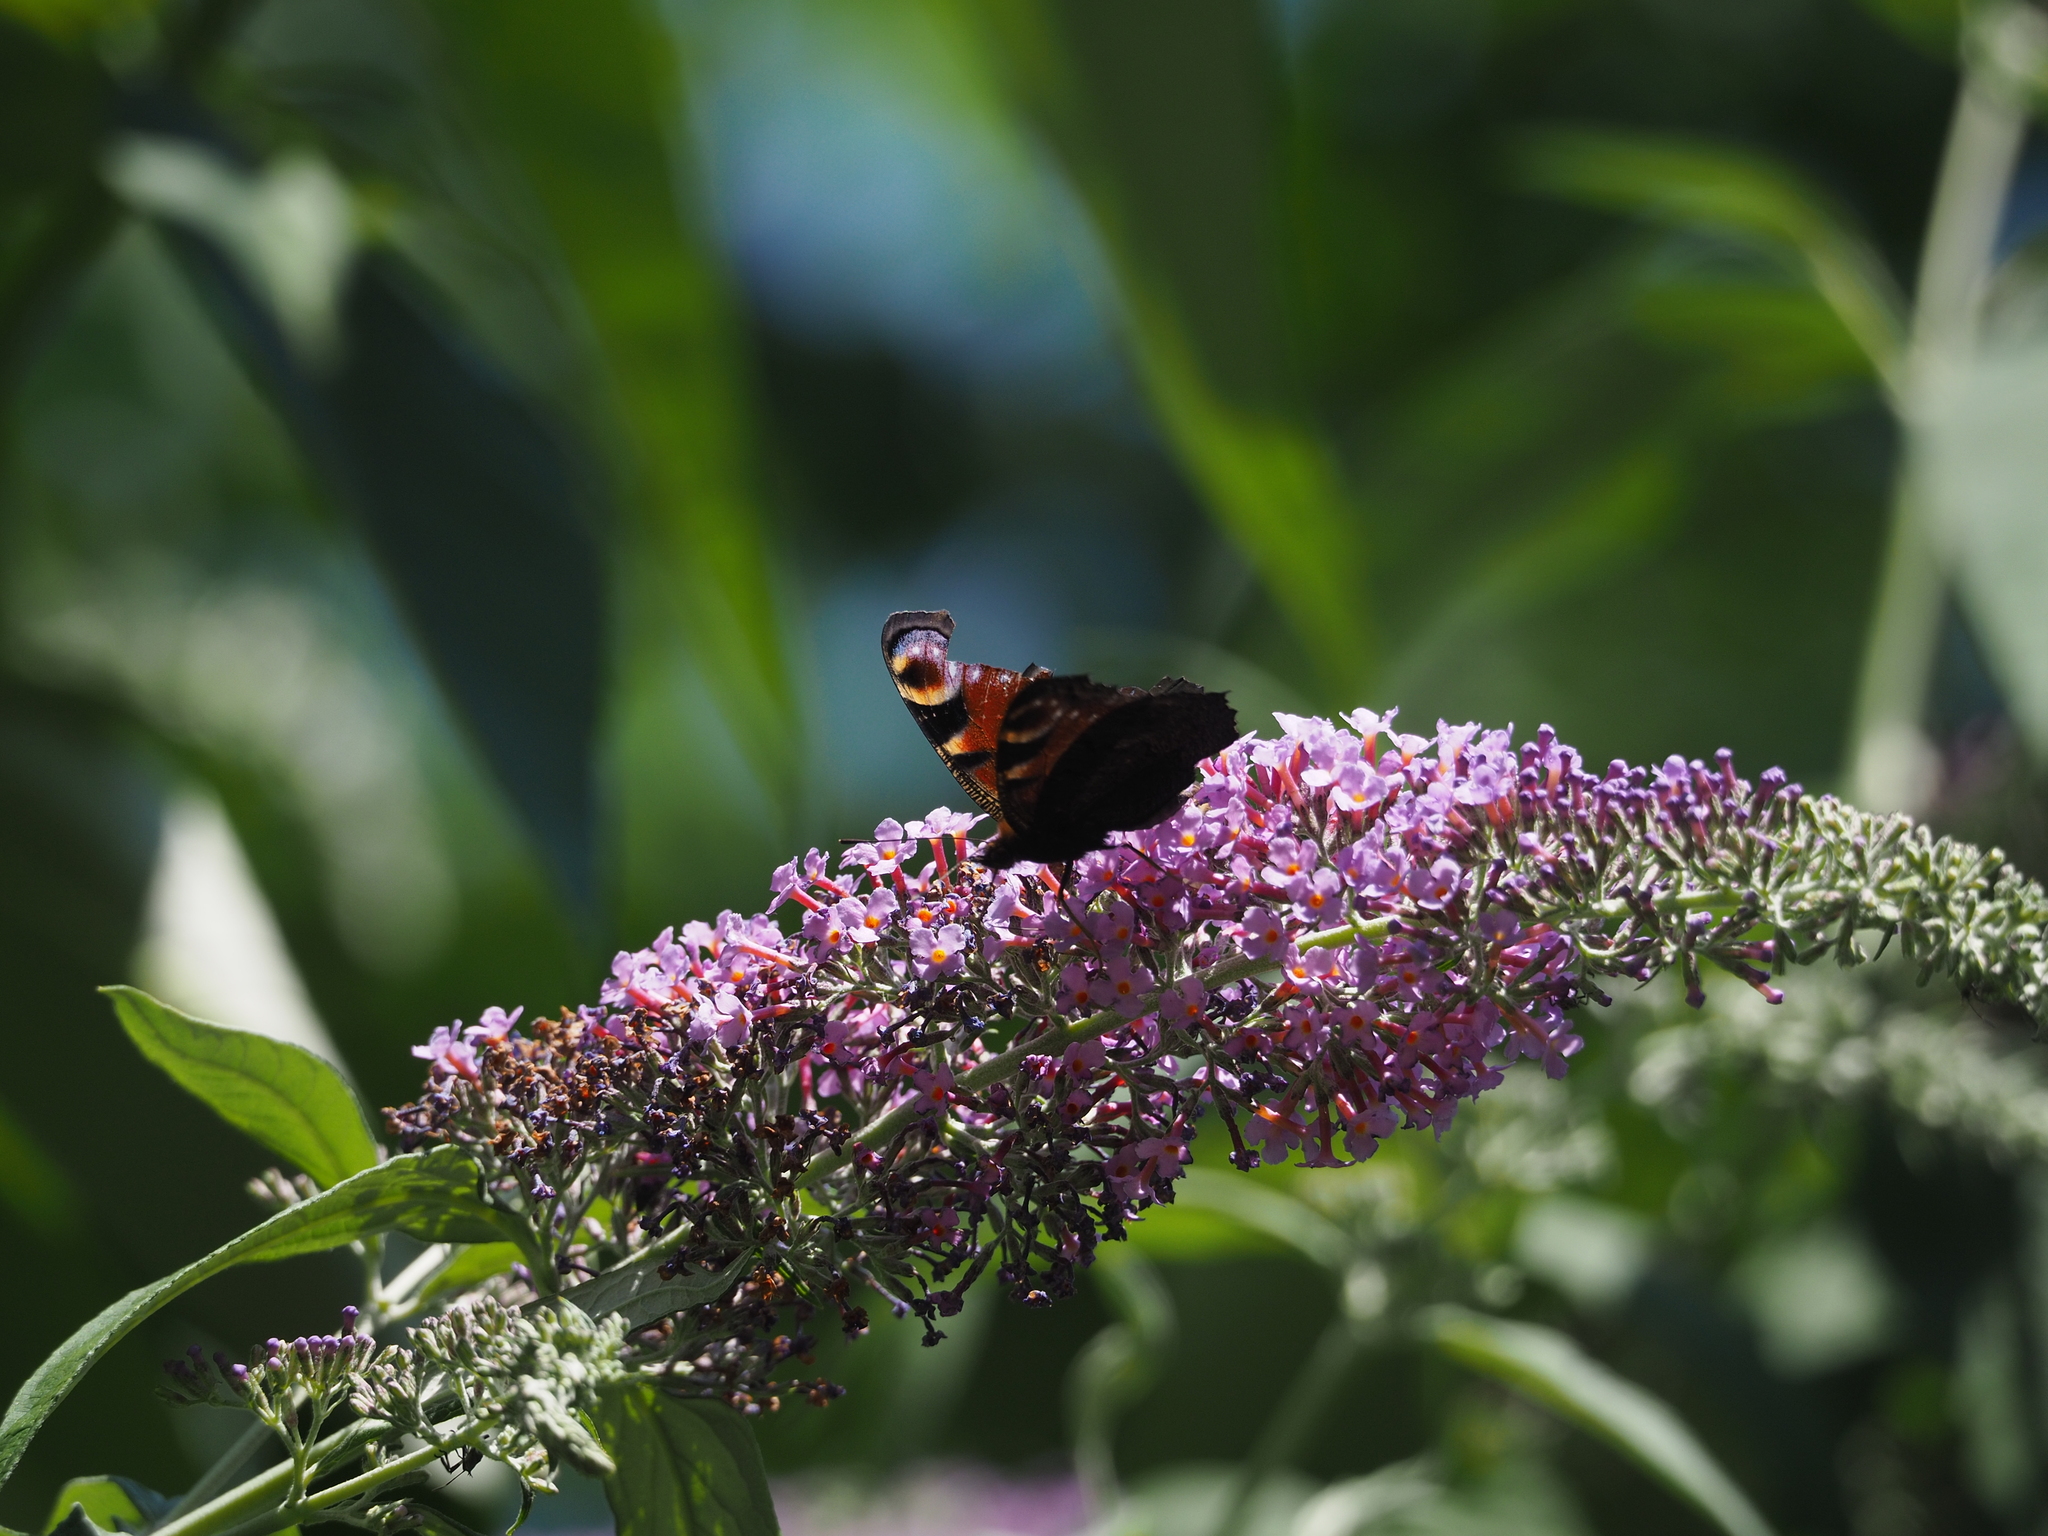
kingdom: Animalia
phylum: Arthropoda
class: Insecta
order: Lepidoptera
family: Nymphalidae
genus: Aglais
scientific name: Aglais io
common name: Peacock
